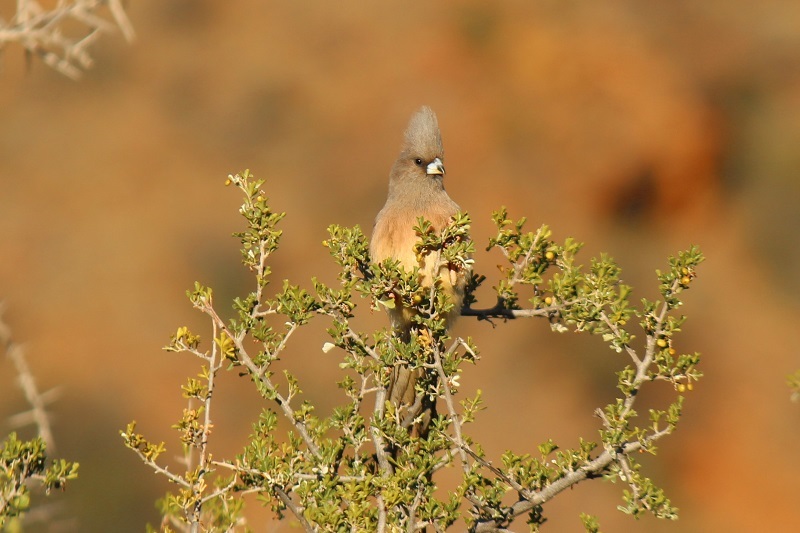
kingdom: Animalia
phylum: Chordata
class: Aves
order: Coliiformes
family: Coliidae
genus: Colius
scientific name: Colius colius
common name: White-backed mousebird
